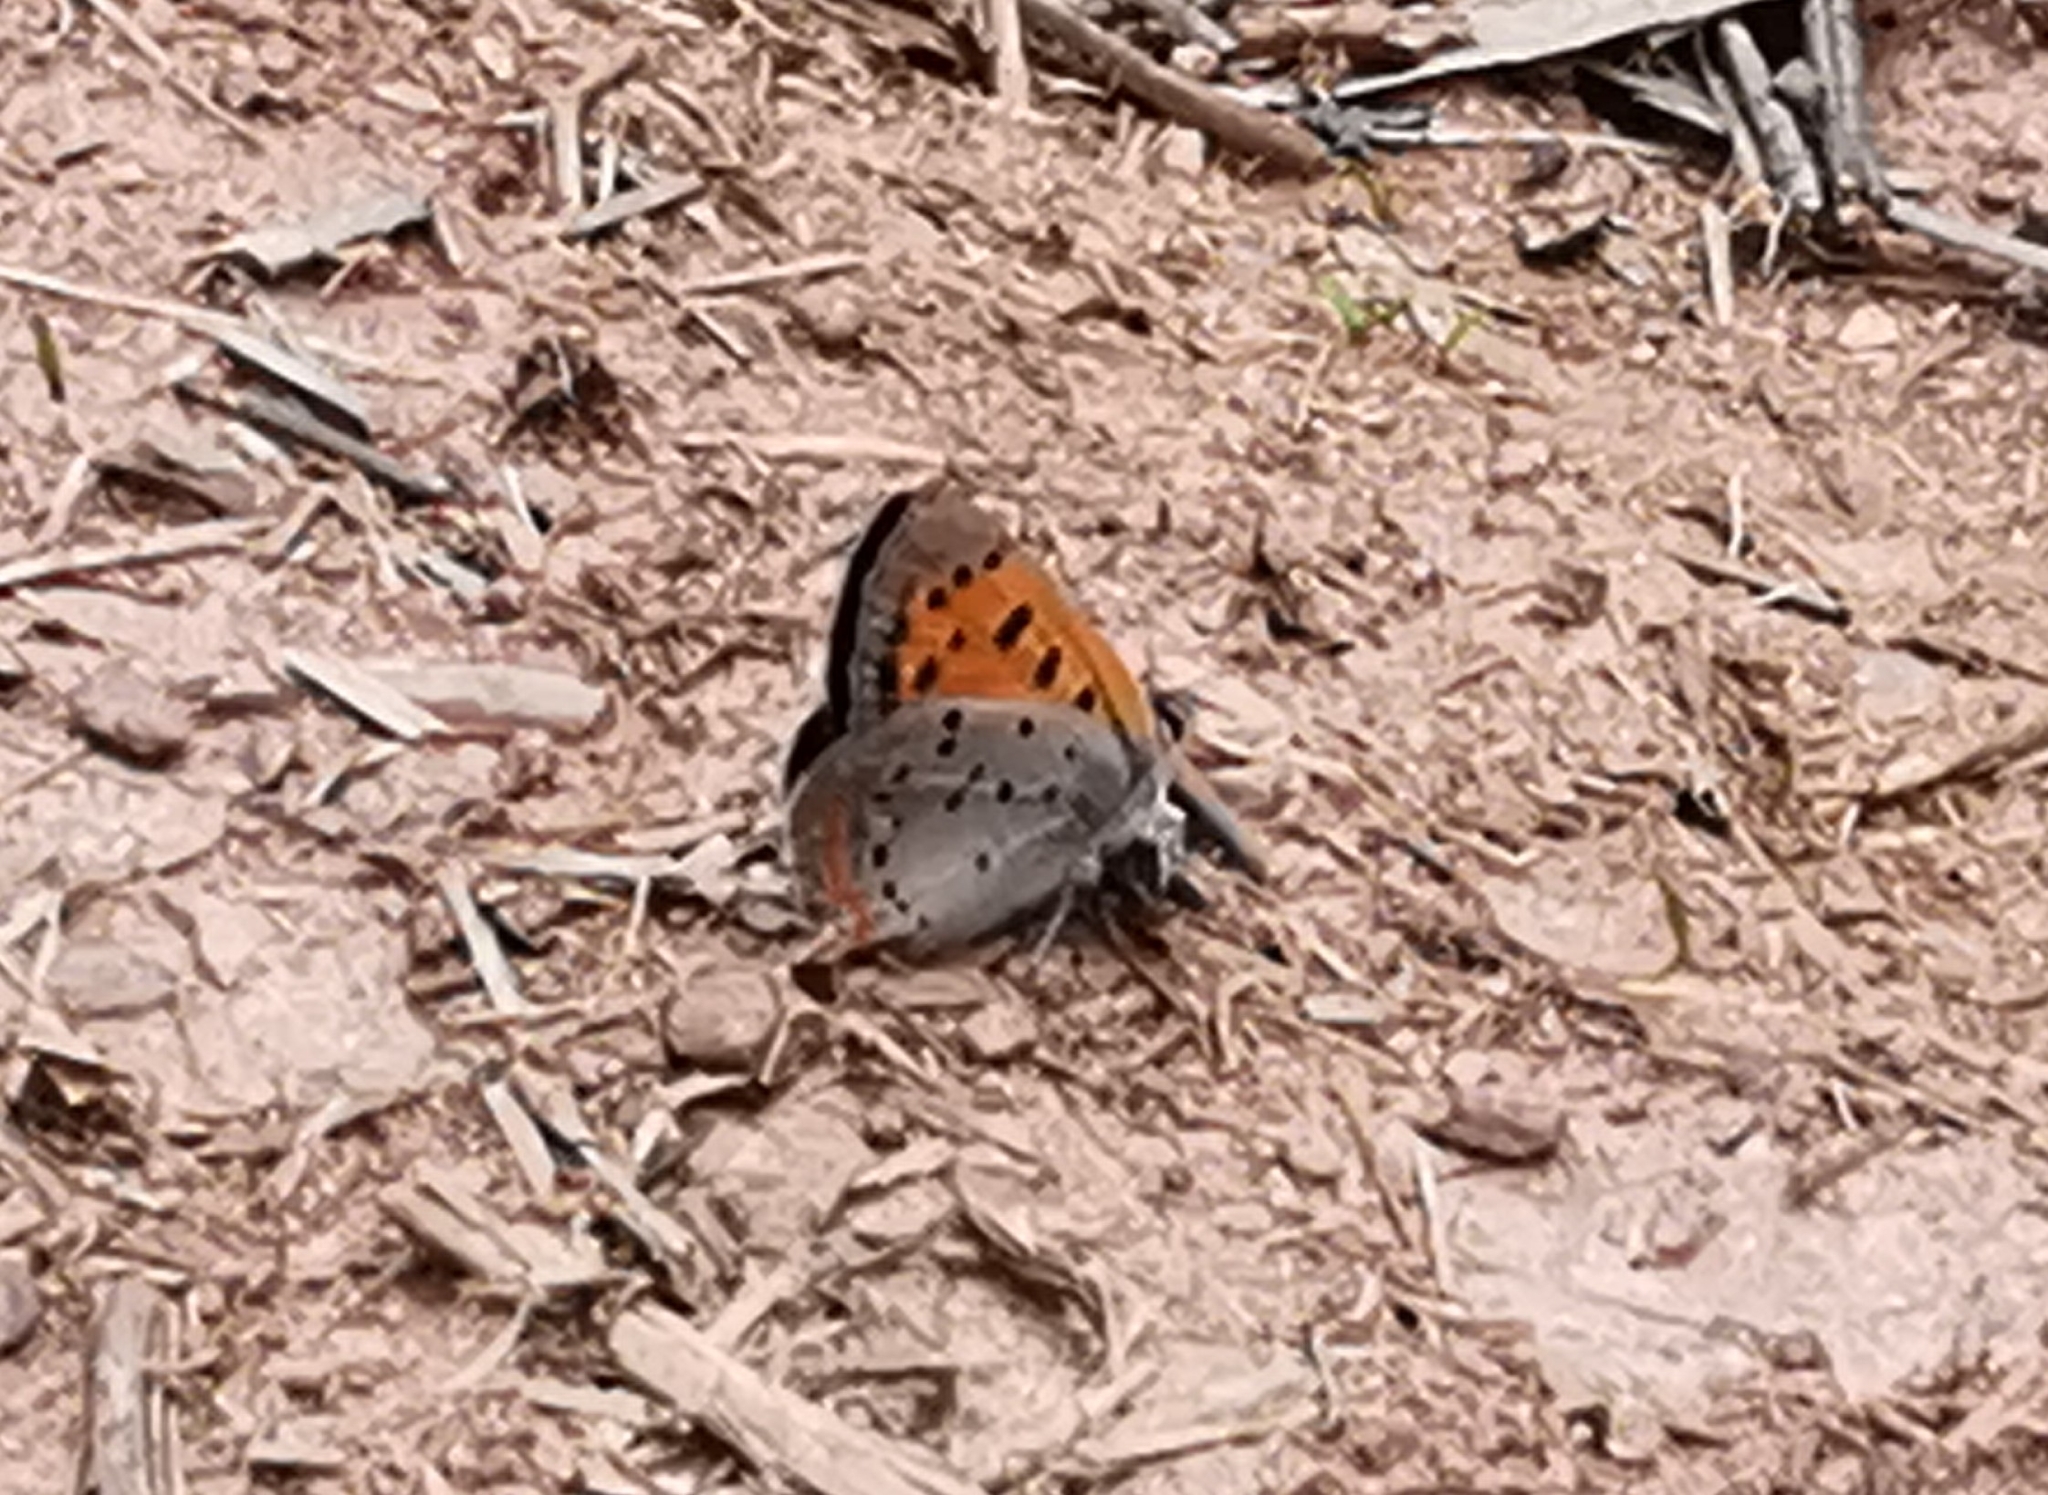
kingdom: Animalia
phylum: Arthropoda
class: Insecta
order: Lepidoptera
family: Lycaenidae
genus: Lycaena
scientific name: Lycaena hypophlaeas
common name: American copper
